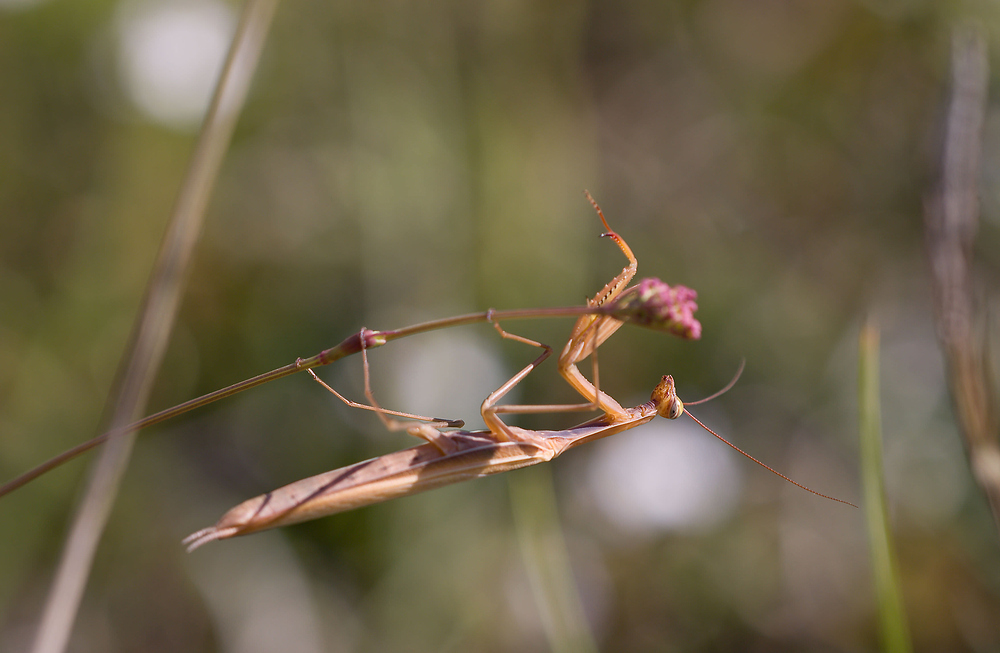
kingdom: Animalia
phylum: Arthropoda
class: Insecta
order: Mantodea
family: Mantidae
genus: Mantis
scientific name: Mantis religiosa
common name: Praying mantis
